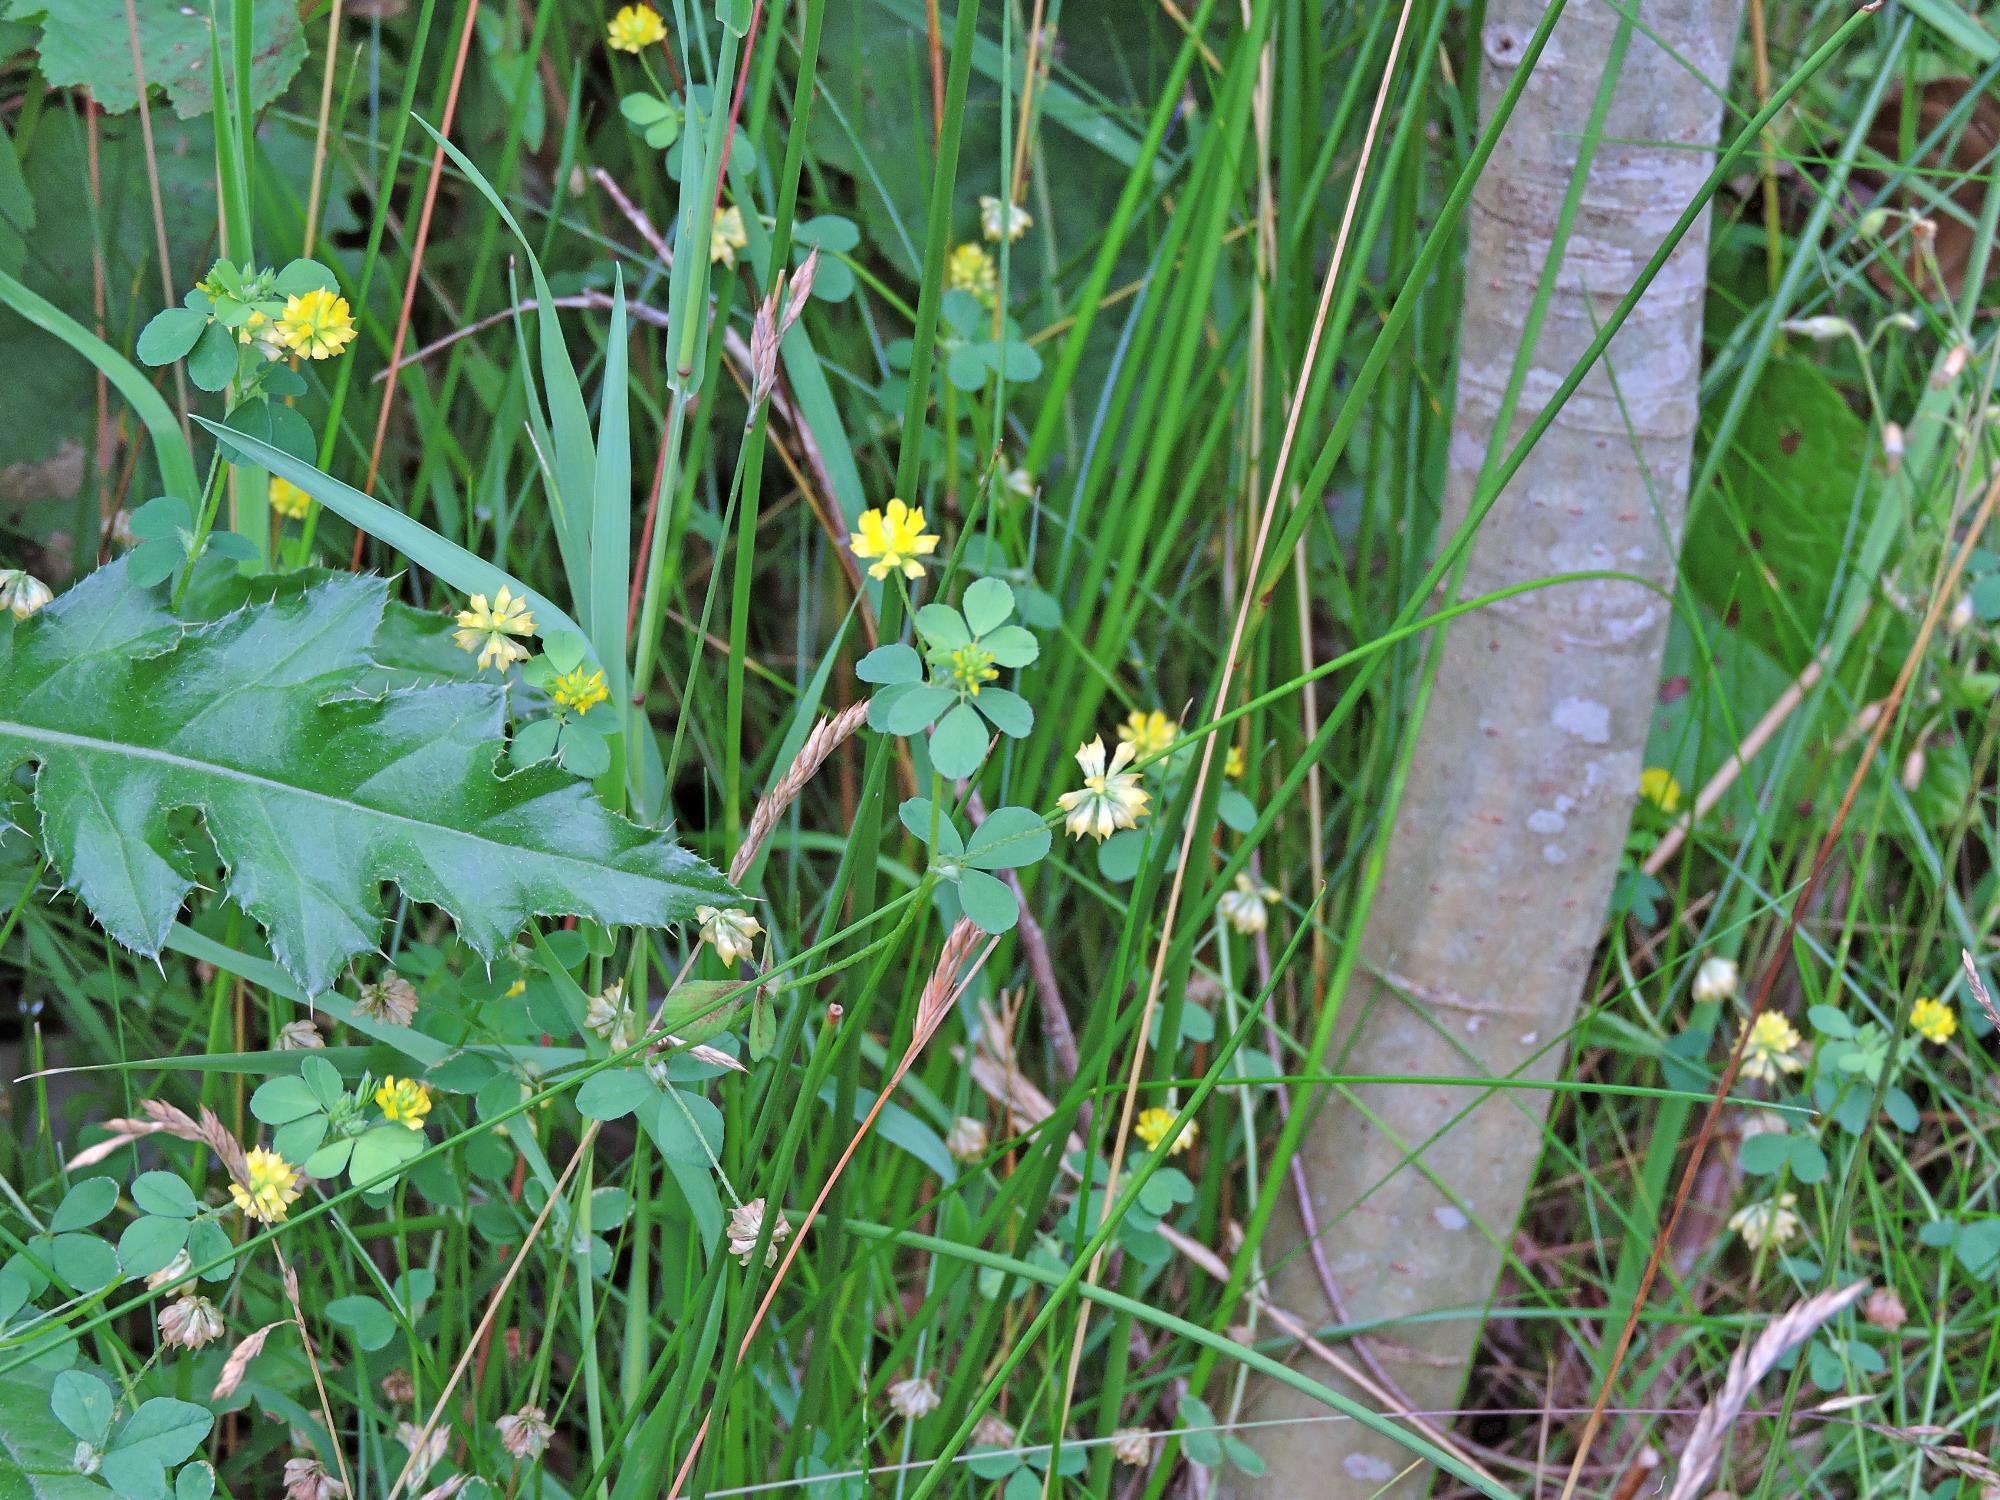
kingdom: Plantae
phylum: Tracheophyta
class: Magnoliopsida
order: Fabales
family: Fabaceae
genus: Trifolium
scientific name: Trifolium dubium
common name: Suckling clover
